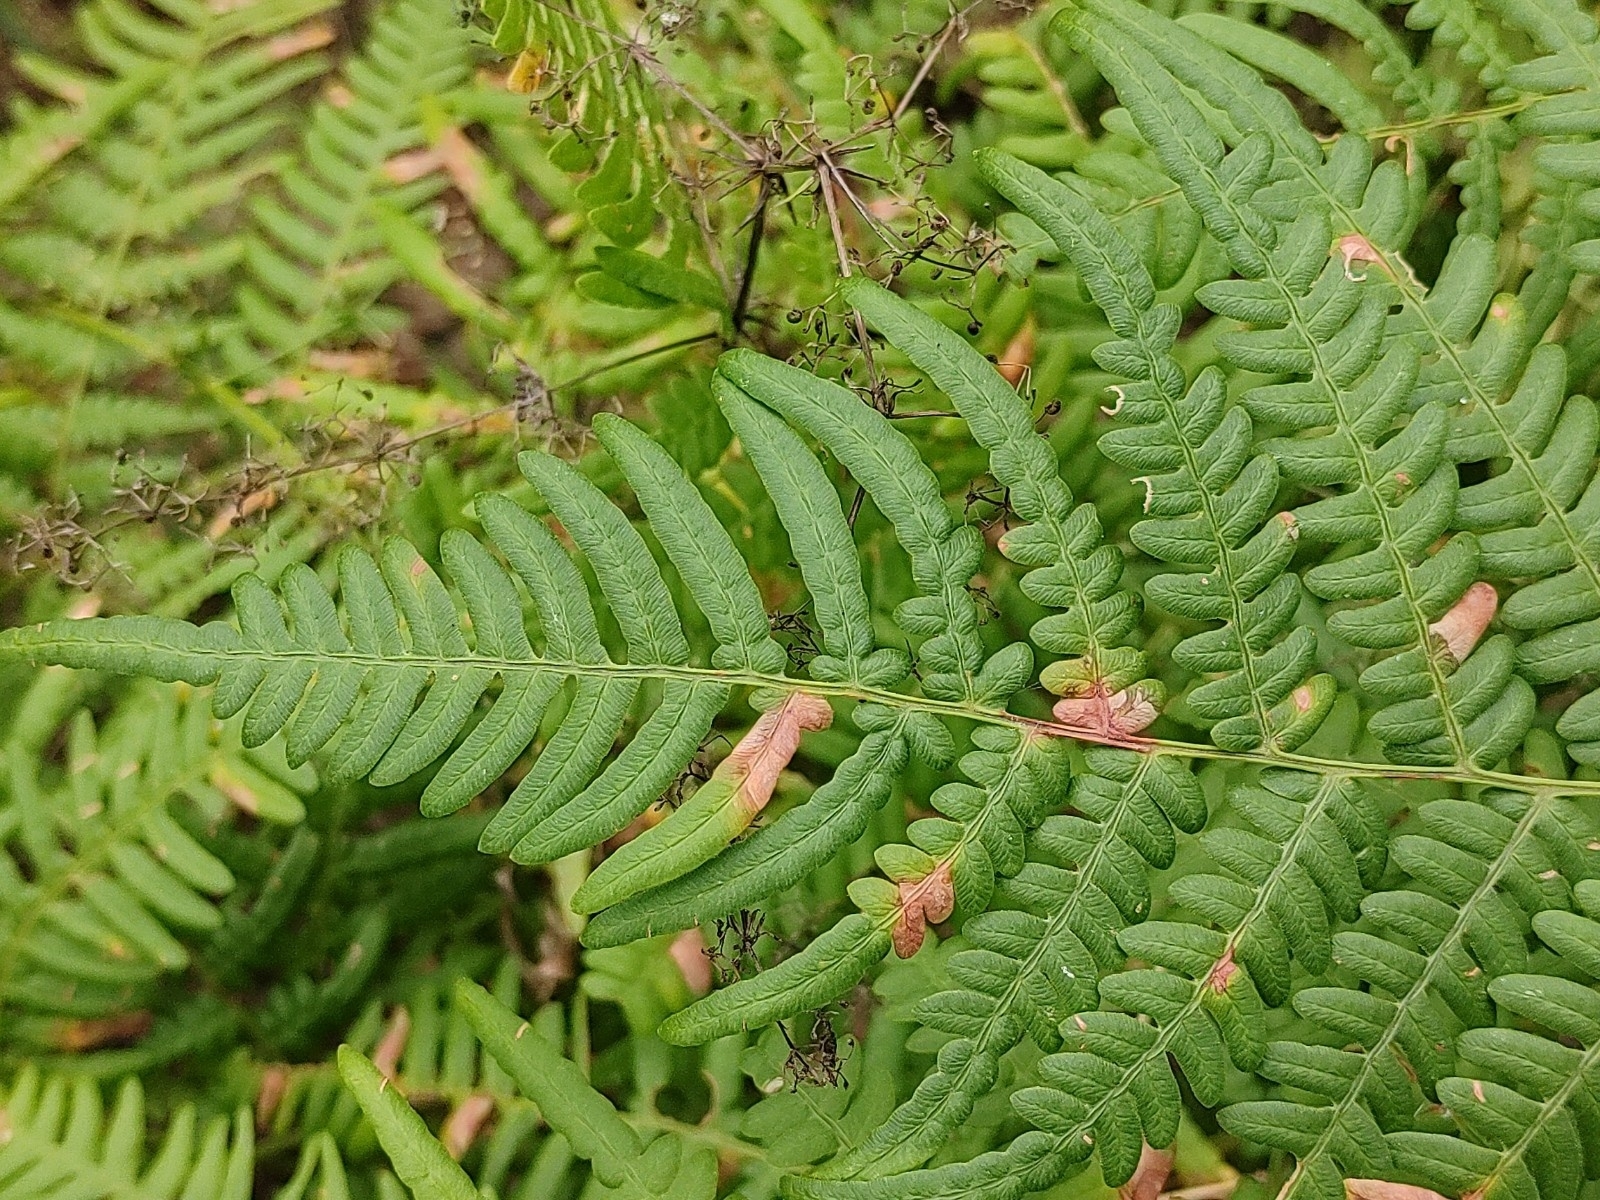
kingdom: Plantae
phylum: Tracheophyta
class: Polypodiopsida
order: Polypodiales
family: Dennstaedtiaceae
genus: Pteridium
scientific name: Pteridium aquilinum
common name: Bracken
